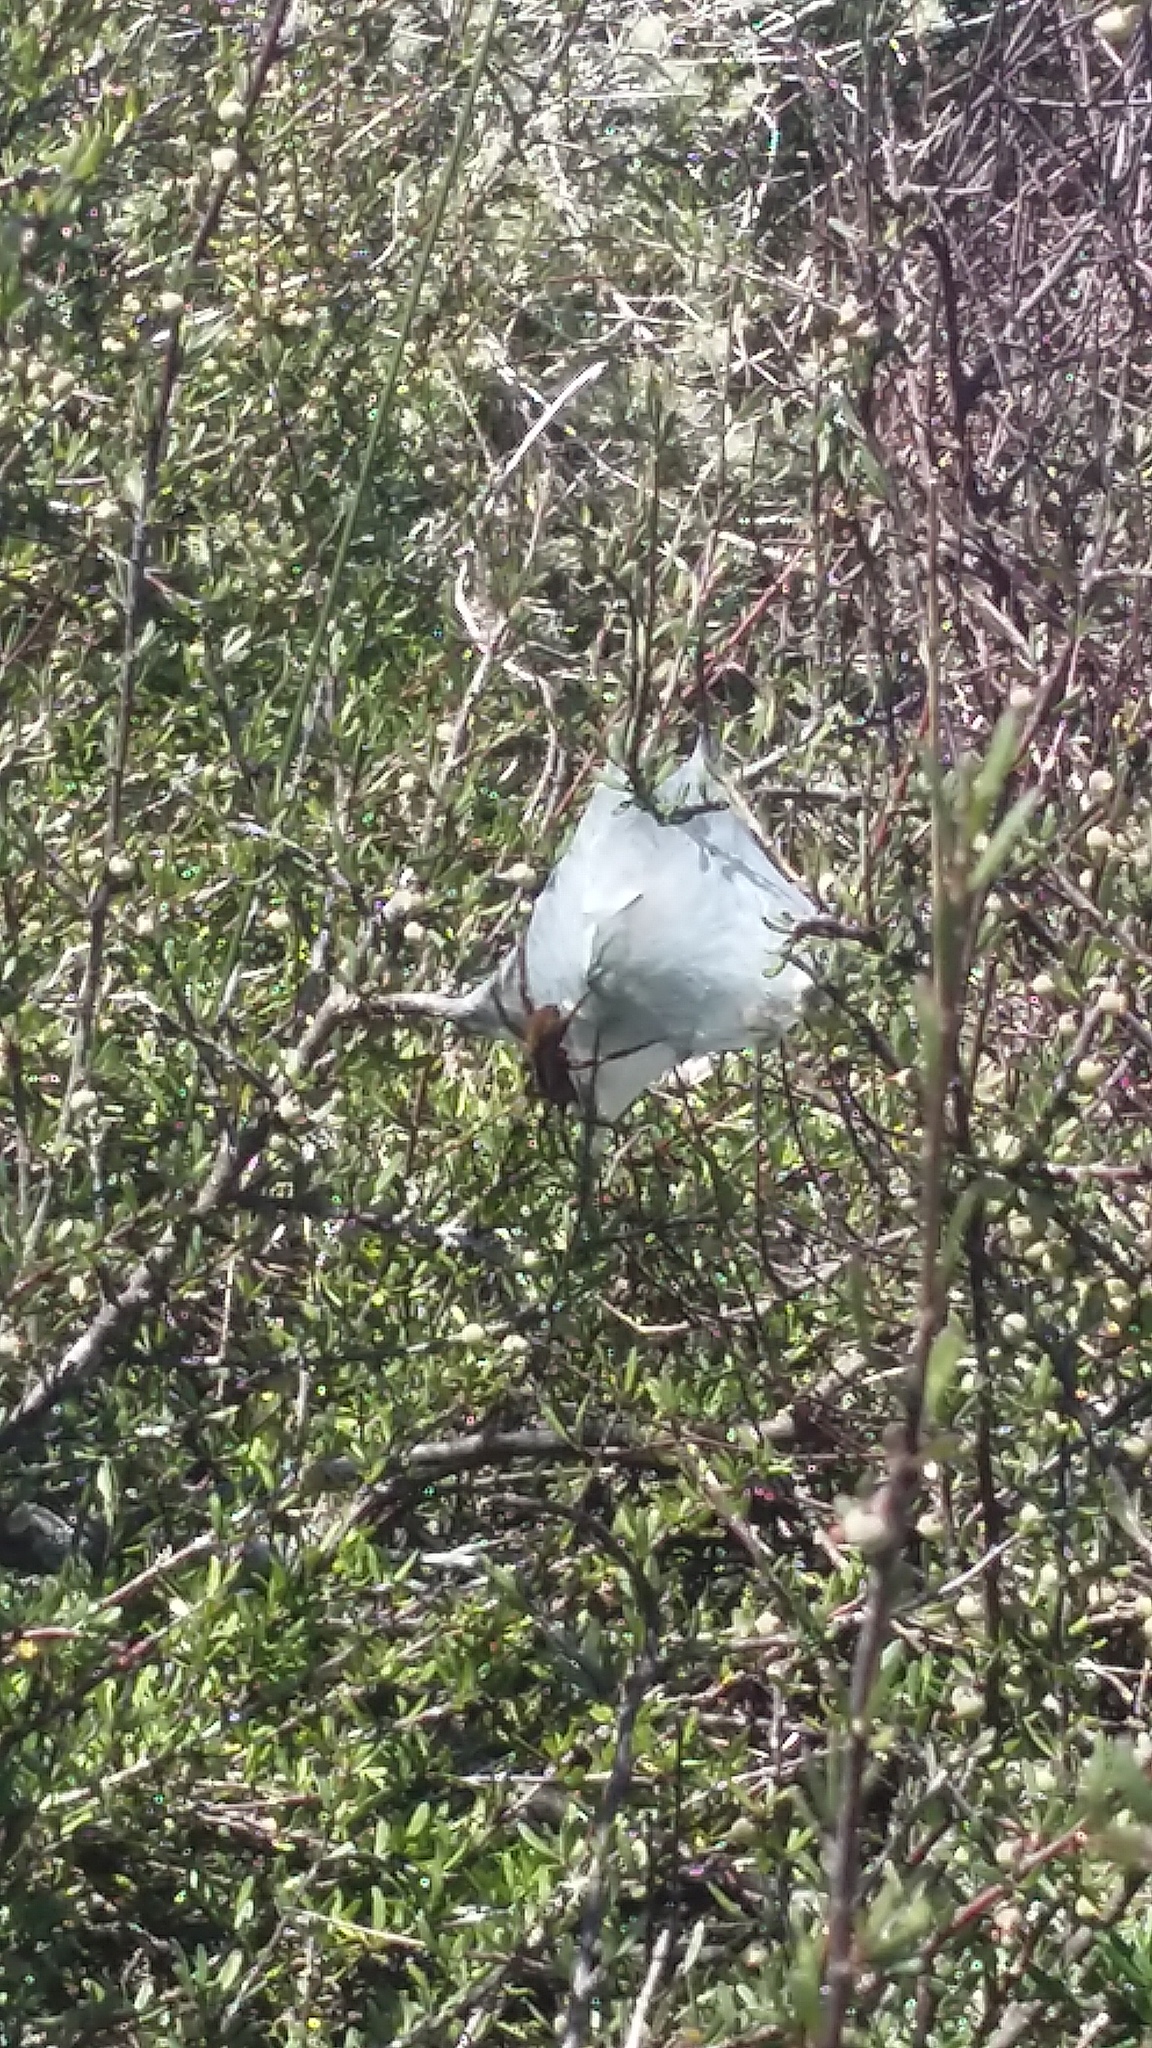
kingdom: Animalia
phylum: Arthropoda
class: Arachnida
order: Araneae
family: Pisauridae
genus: Dolomedes
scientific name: Dolomedes minor
